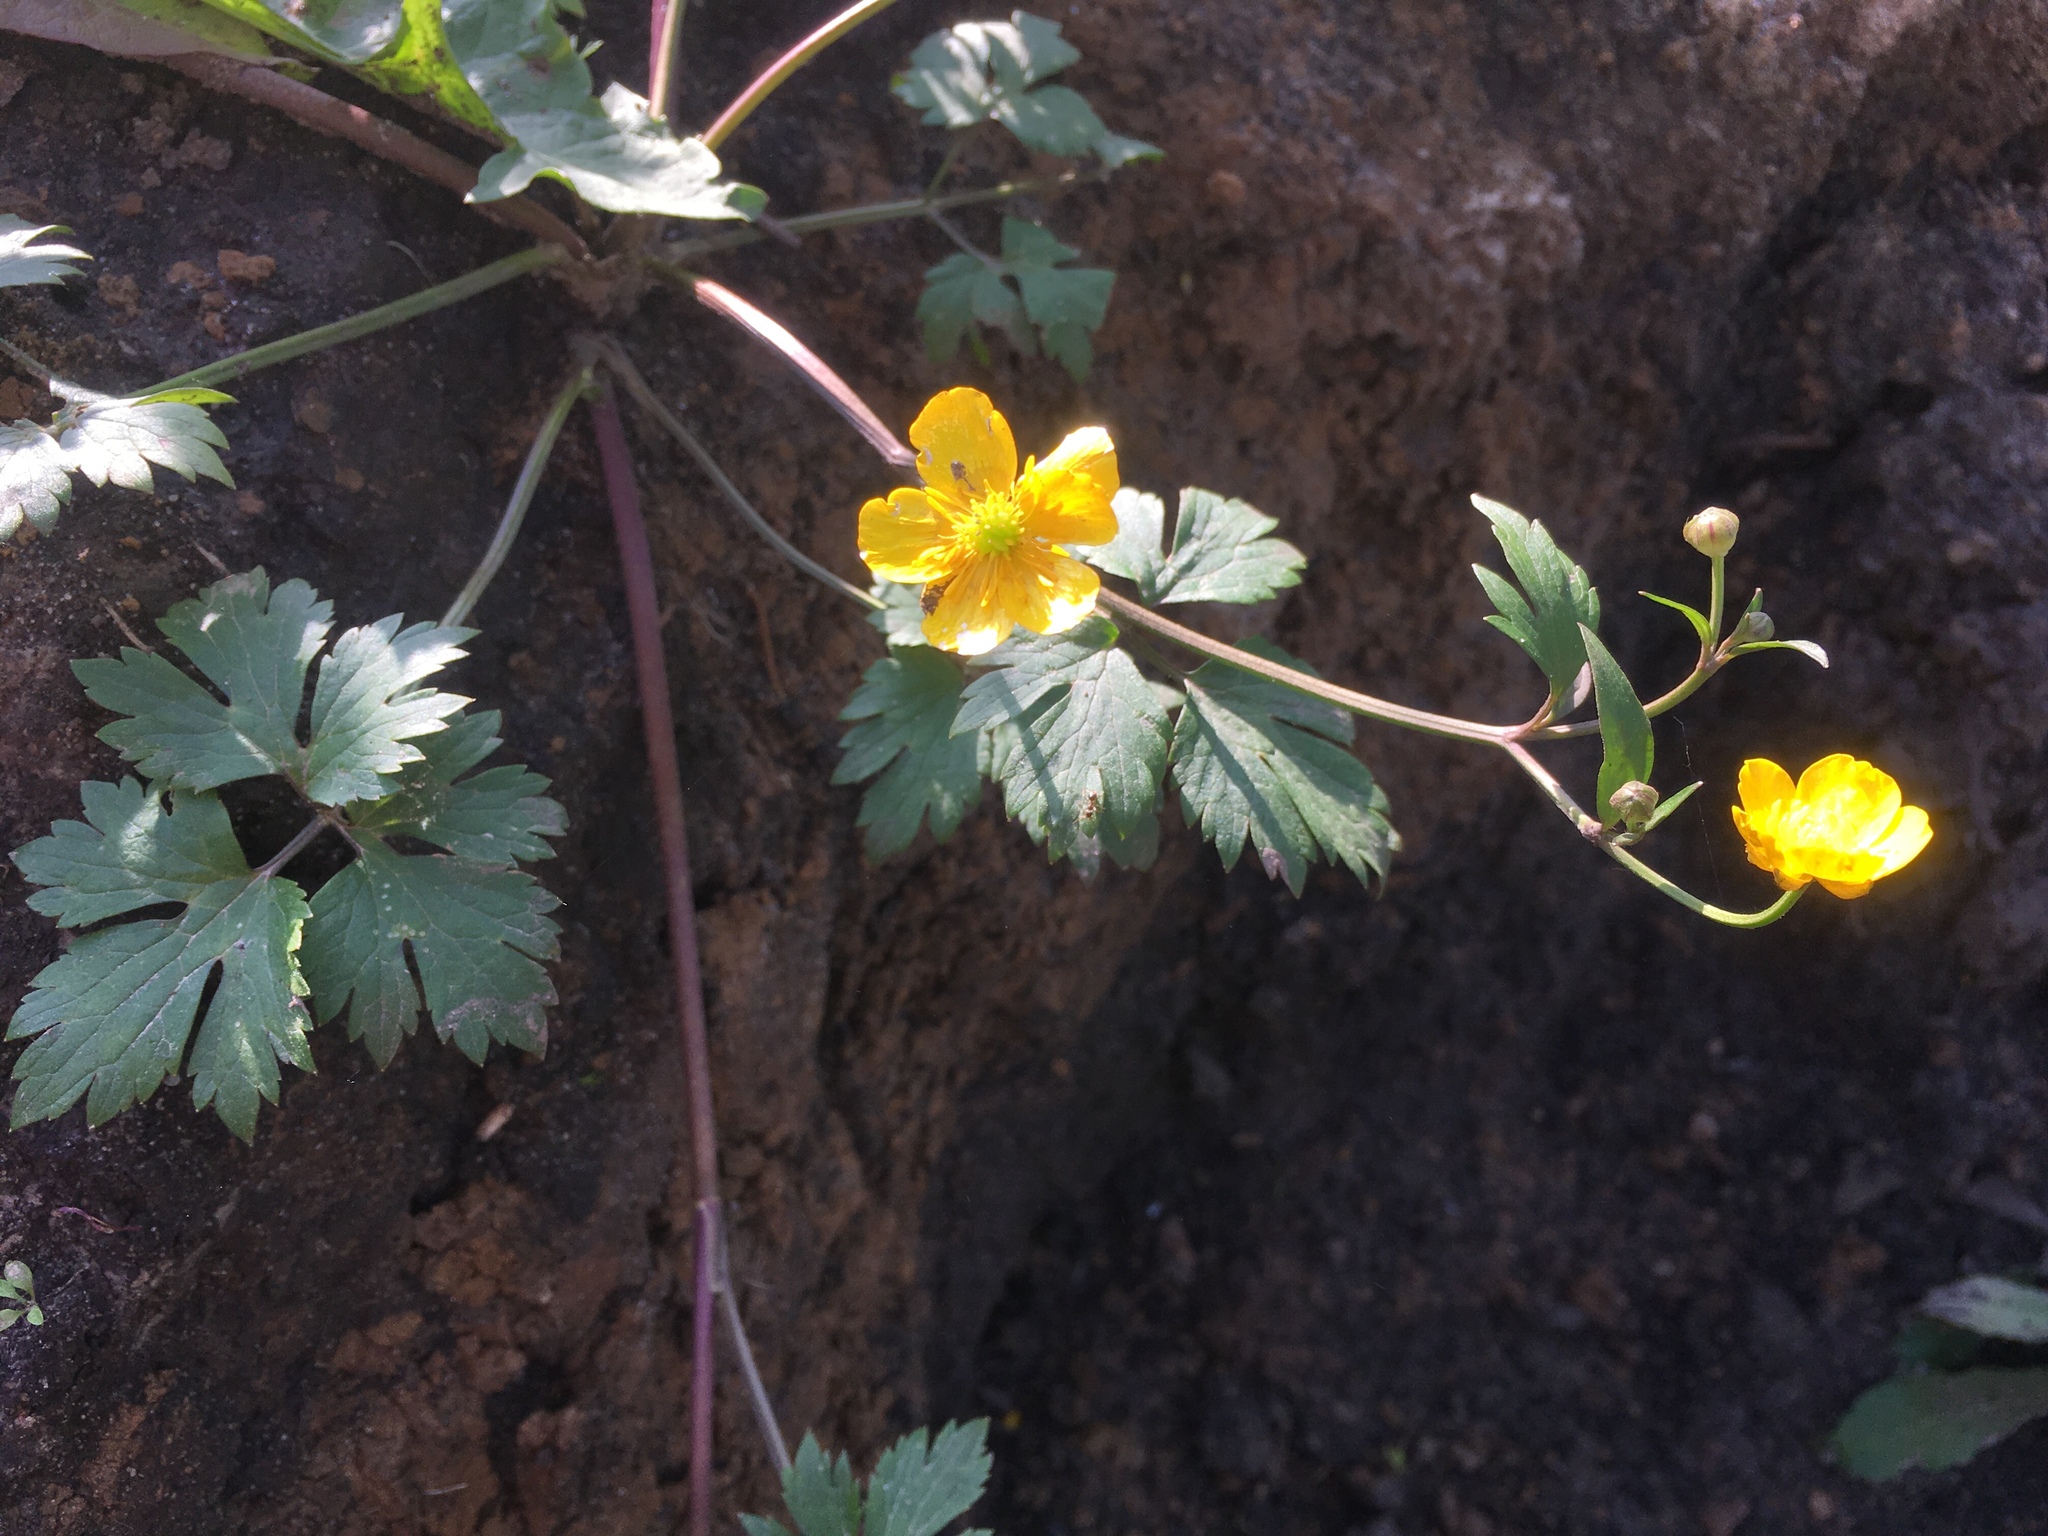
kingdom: Plantae
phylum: Tracheophyta
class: Magnoliopsida
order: Ranunculales
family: Ranunculaceae
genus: Ranunculus
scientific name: Ranunculus repens
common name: Creeping buttercup
